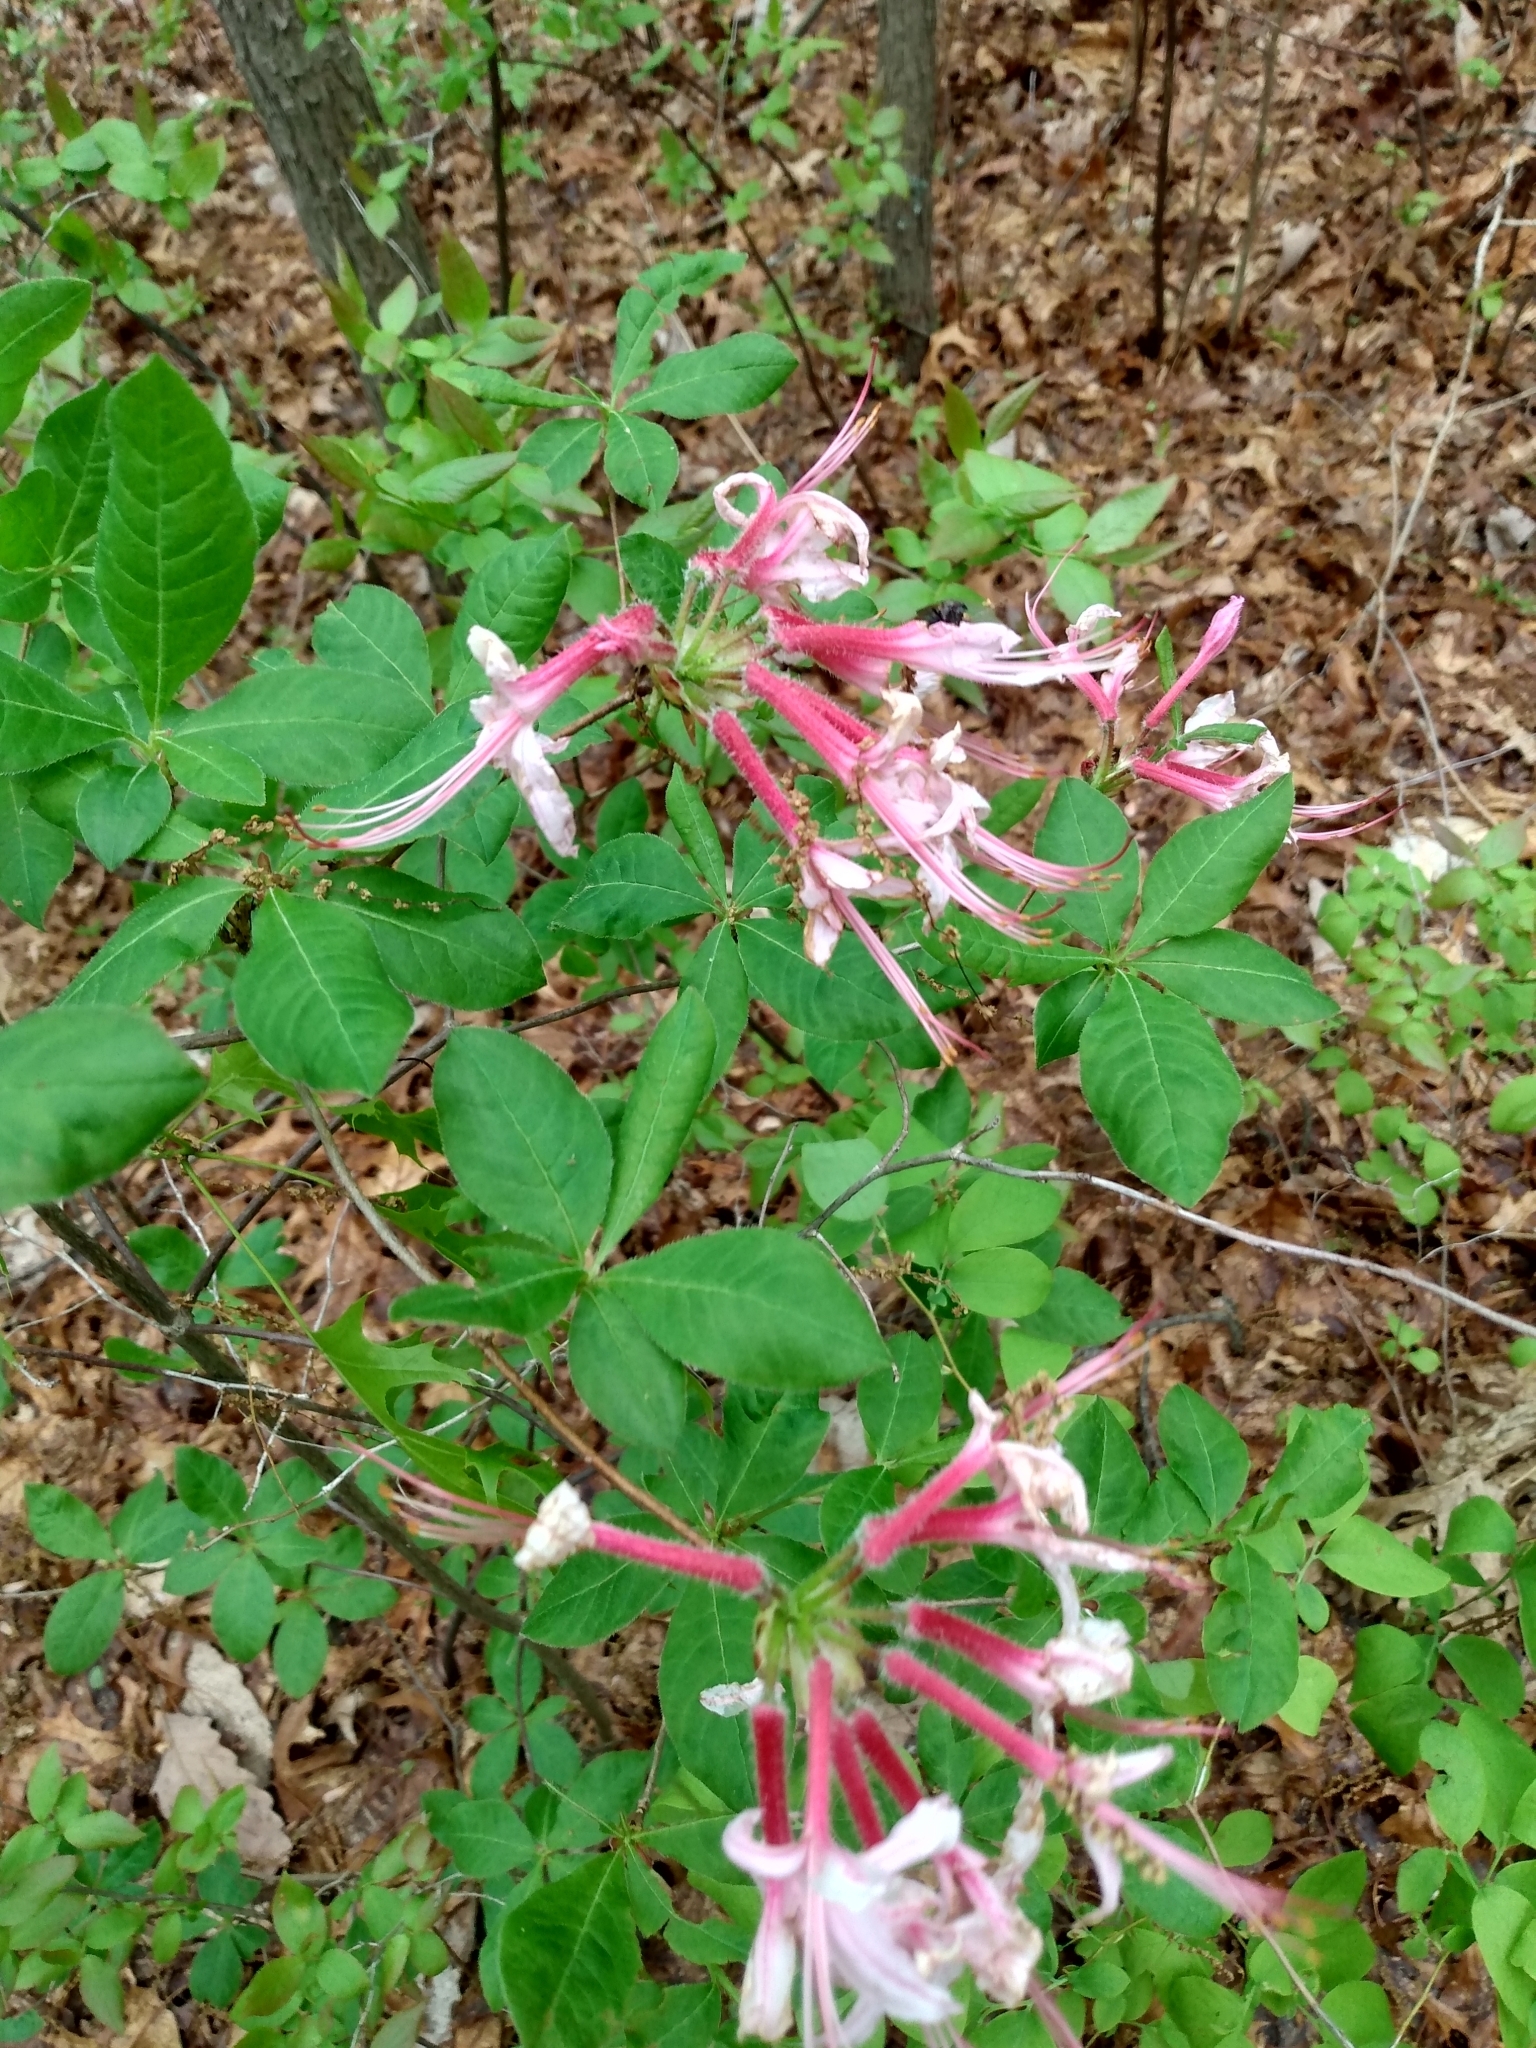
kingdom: Plantae
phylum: Tracheophyta
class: Magnoliopsida
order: Ericales
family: Ericaceae
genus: Rhododendron
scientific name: Rhododendron periclymenoides
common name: Election-pink
